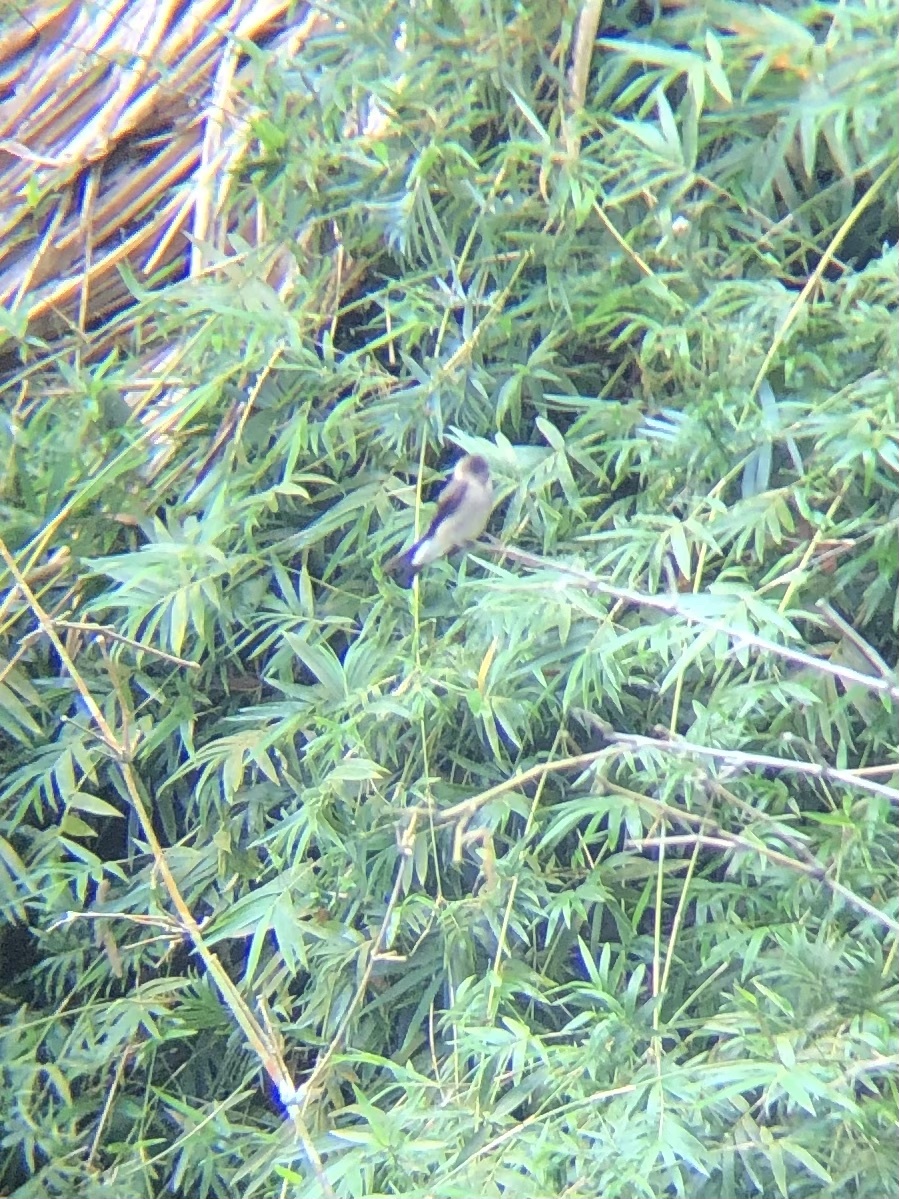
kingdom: Animalia
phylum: Chordata
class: Aves
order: Passeriformes
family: Hirundinidae
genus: Stelgidopteryx
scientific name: Stelgidopteryx ruficollis
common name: Southern rough-winged swallow
